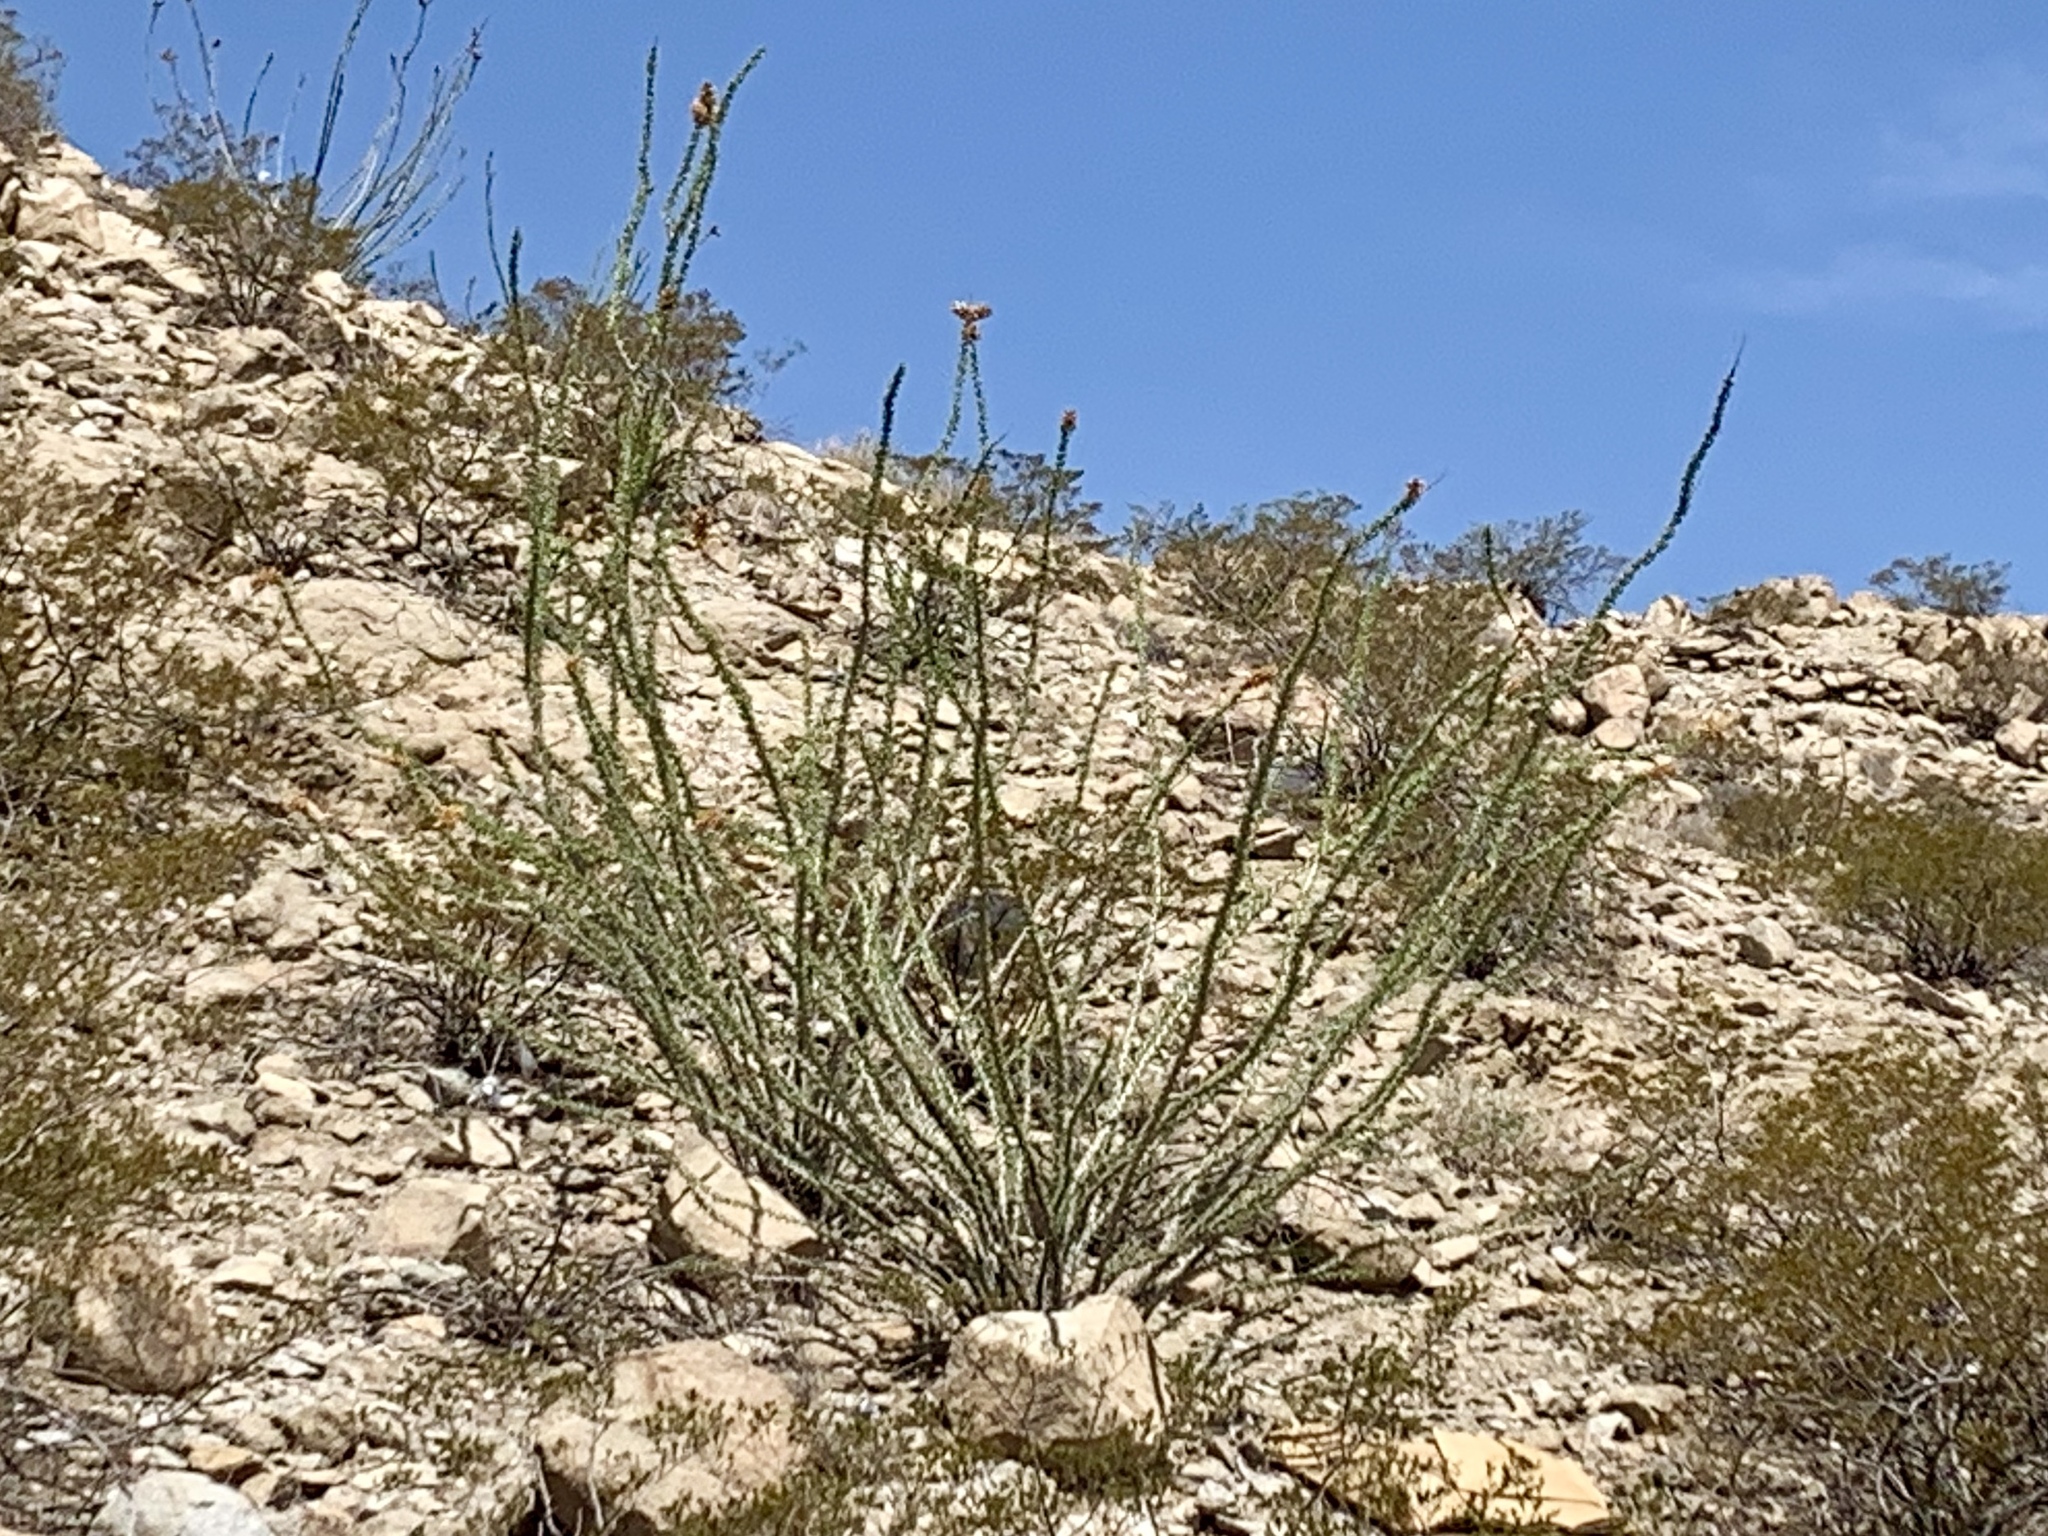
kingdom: Plantae
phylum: Tracheophyta
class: Magnoliopsida
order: Ericales
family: Fouquieriaceae
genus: Fouquieria
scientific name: Fouquieria splendens
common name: Vine-cactus
